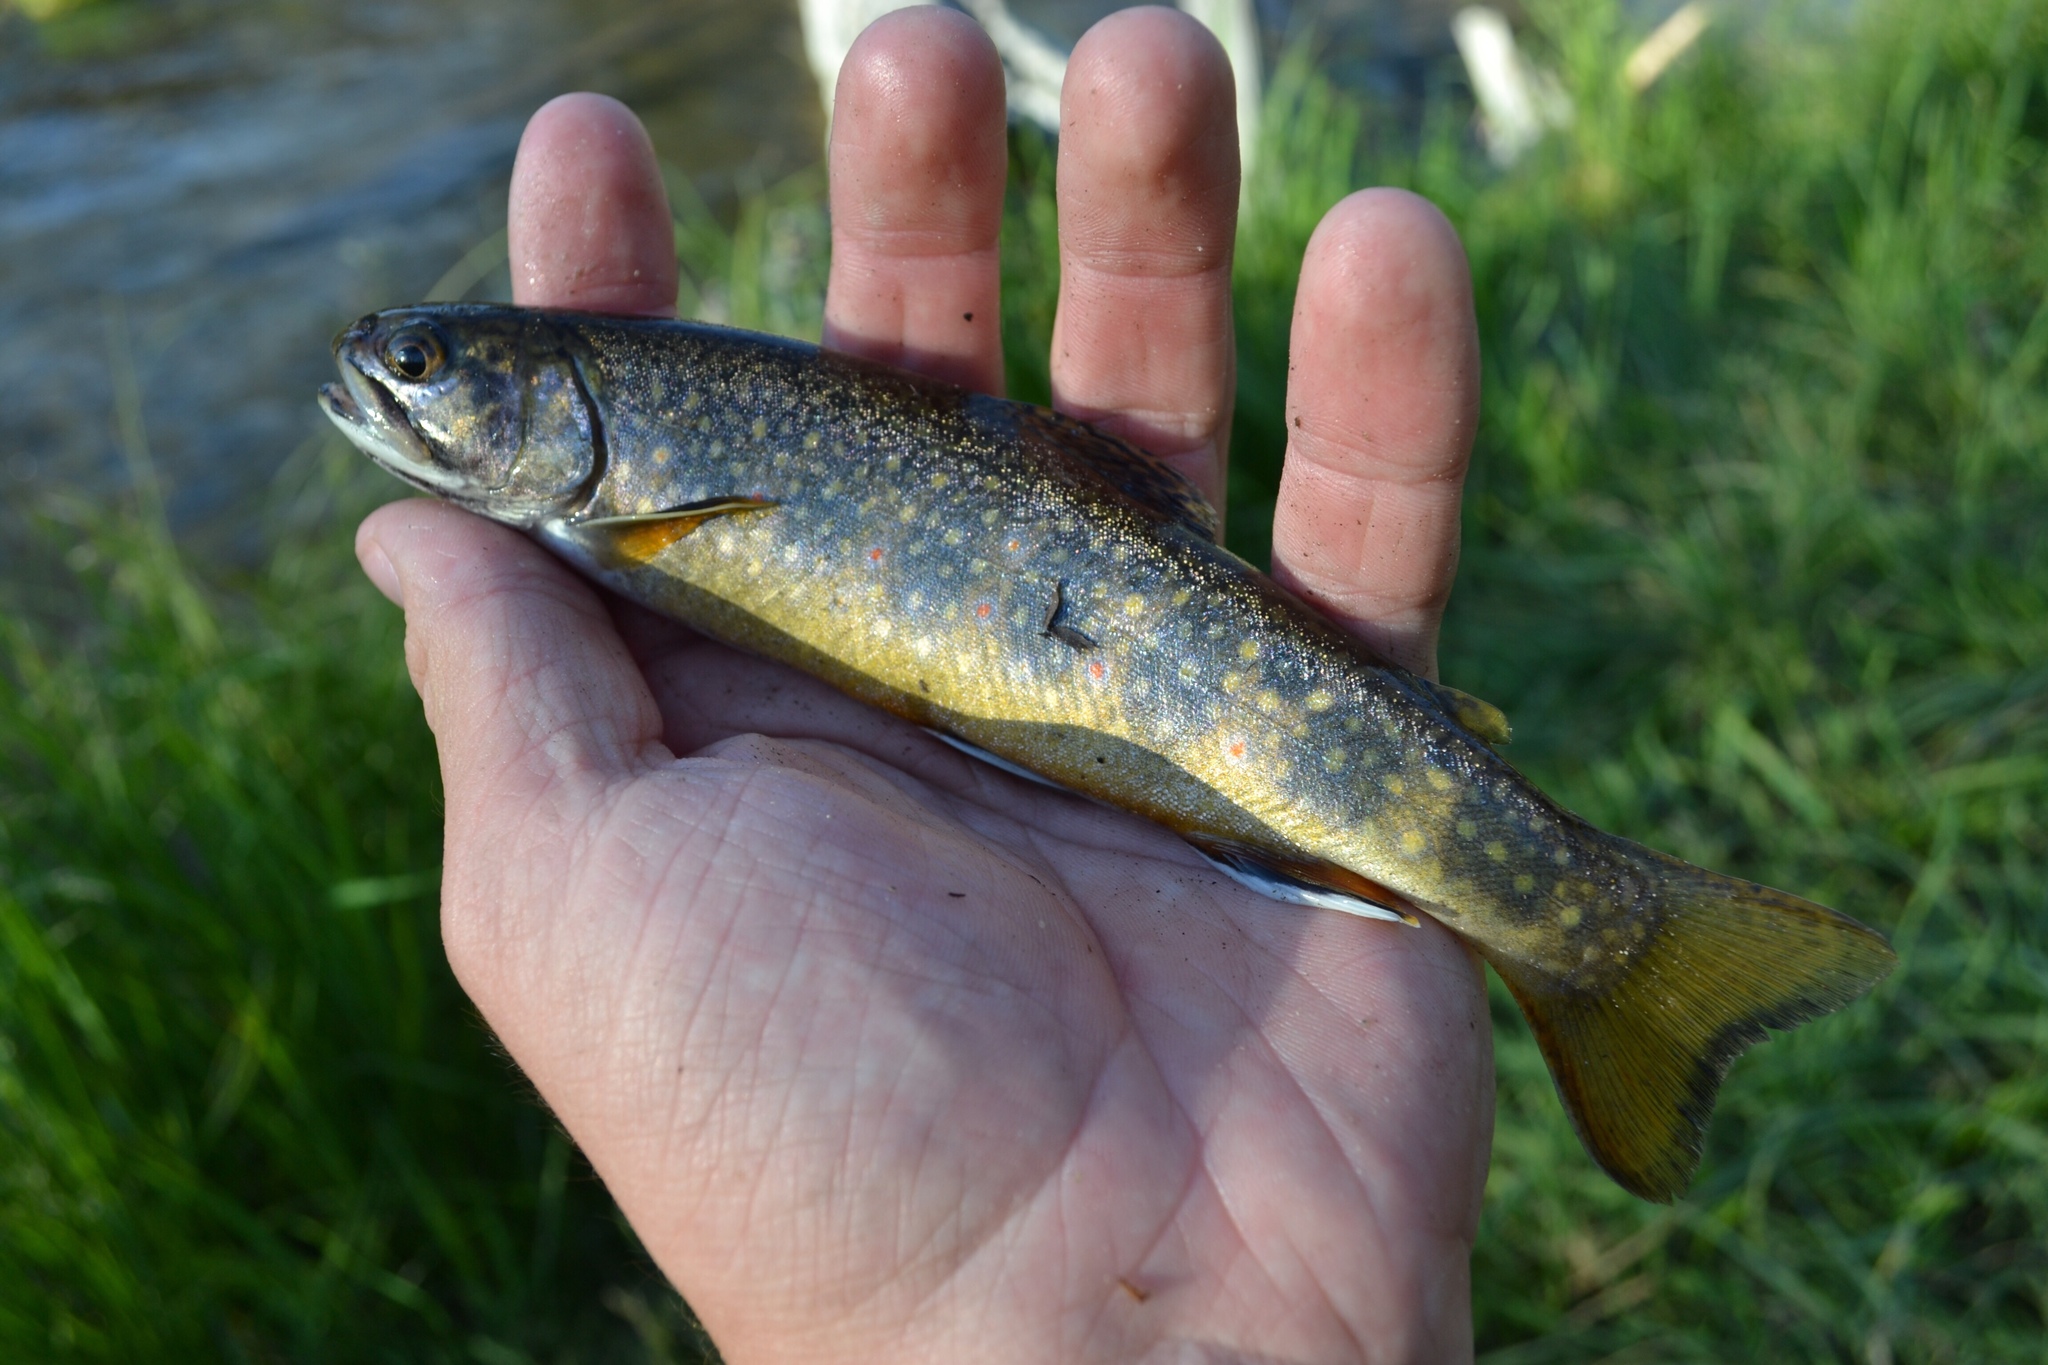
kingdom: Animalia
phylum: Chordata
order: Salmoniformes
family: Salmonidae
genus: Salvelinus
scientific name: Salvelinus fontinalis
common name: Brook trout
